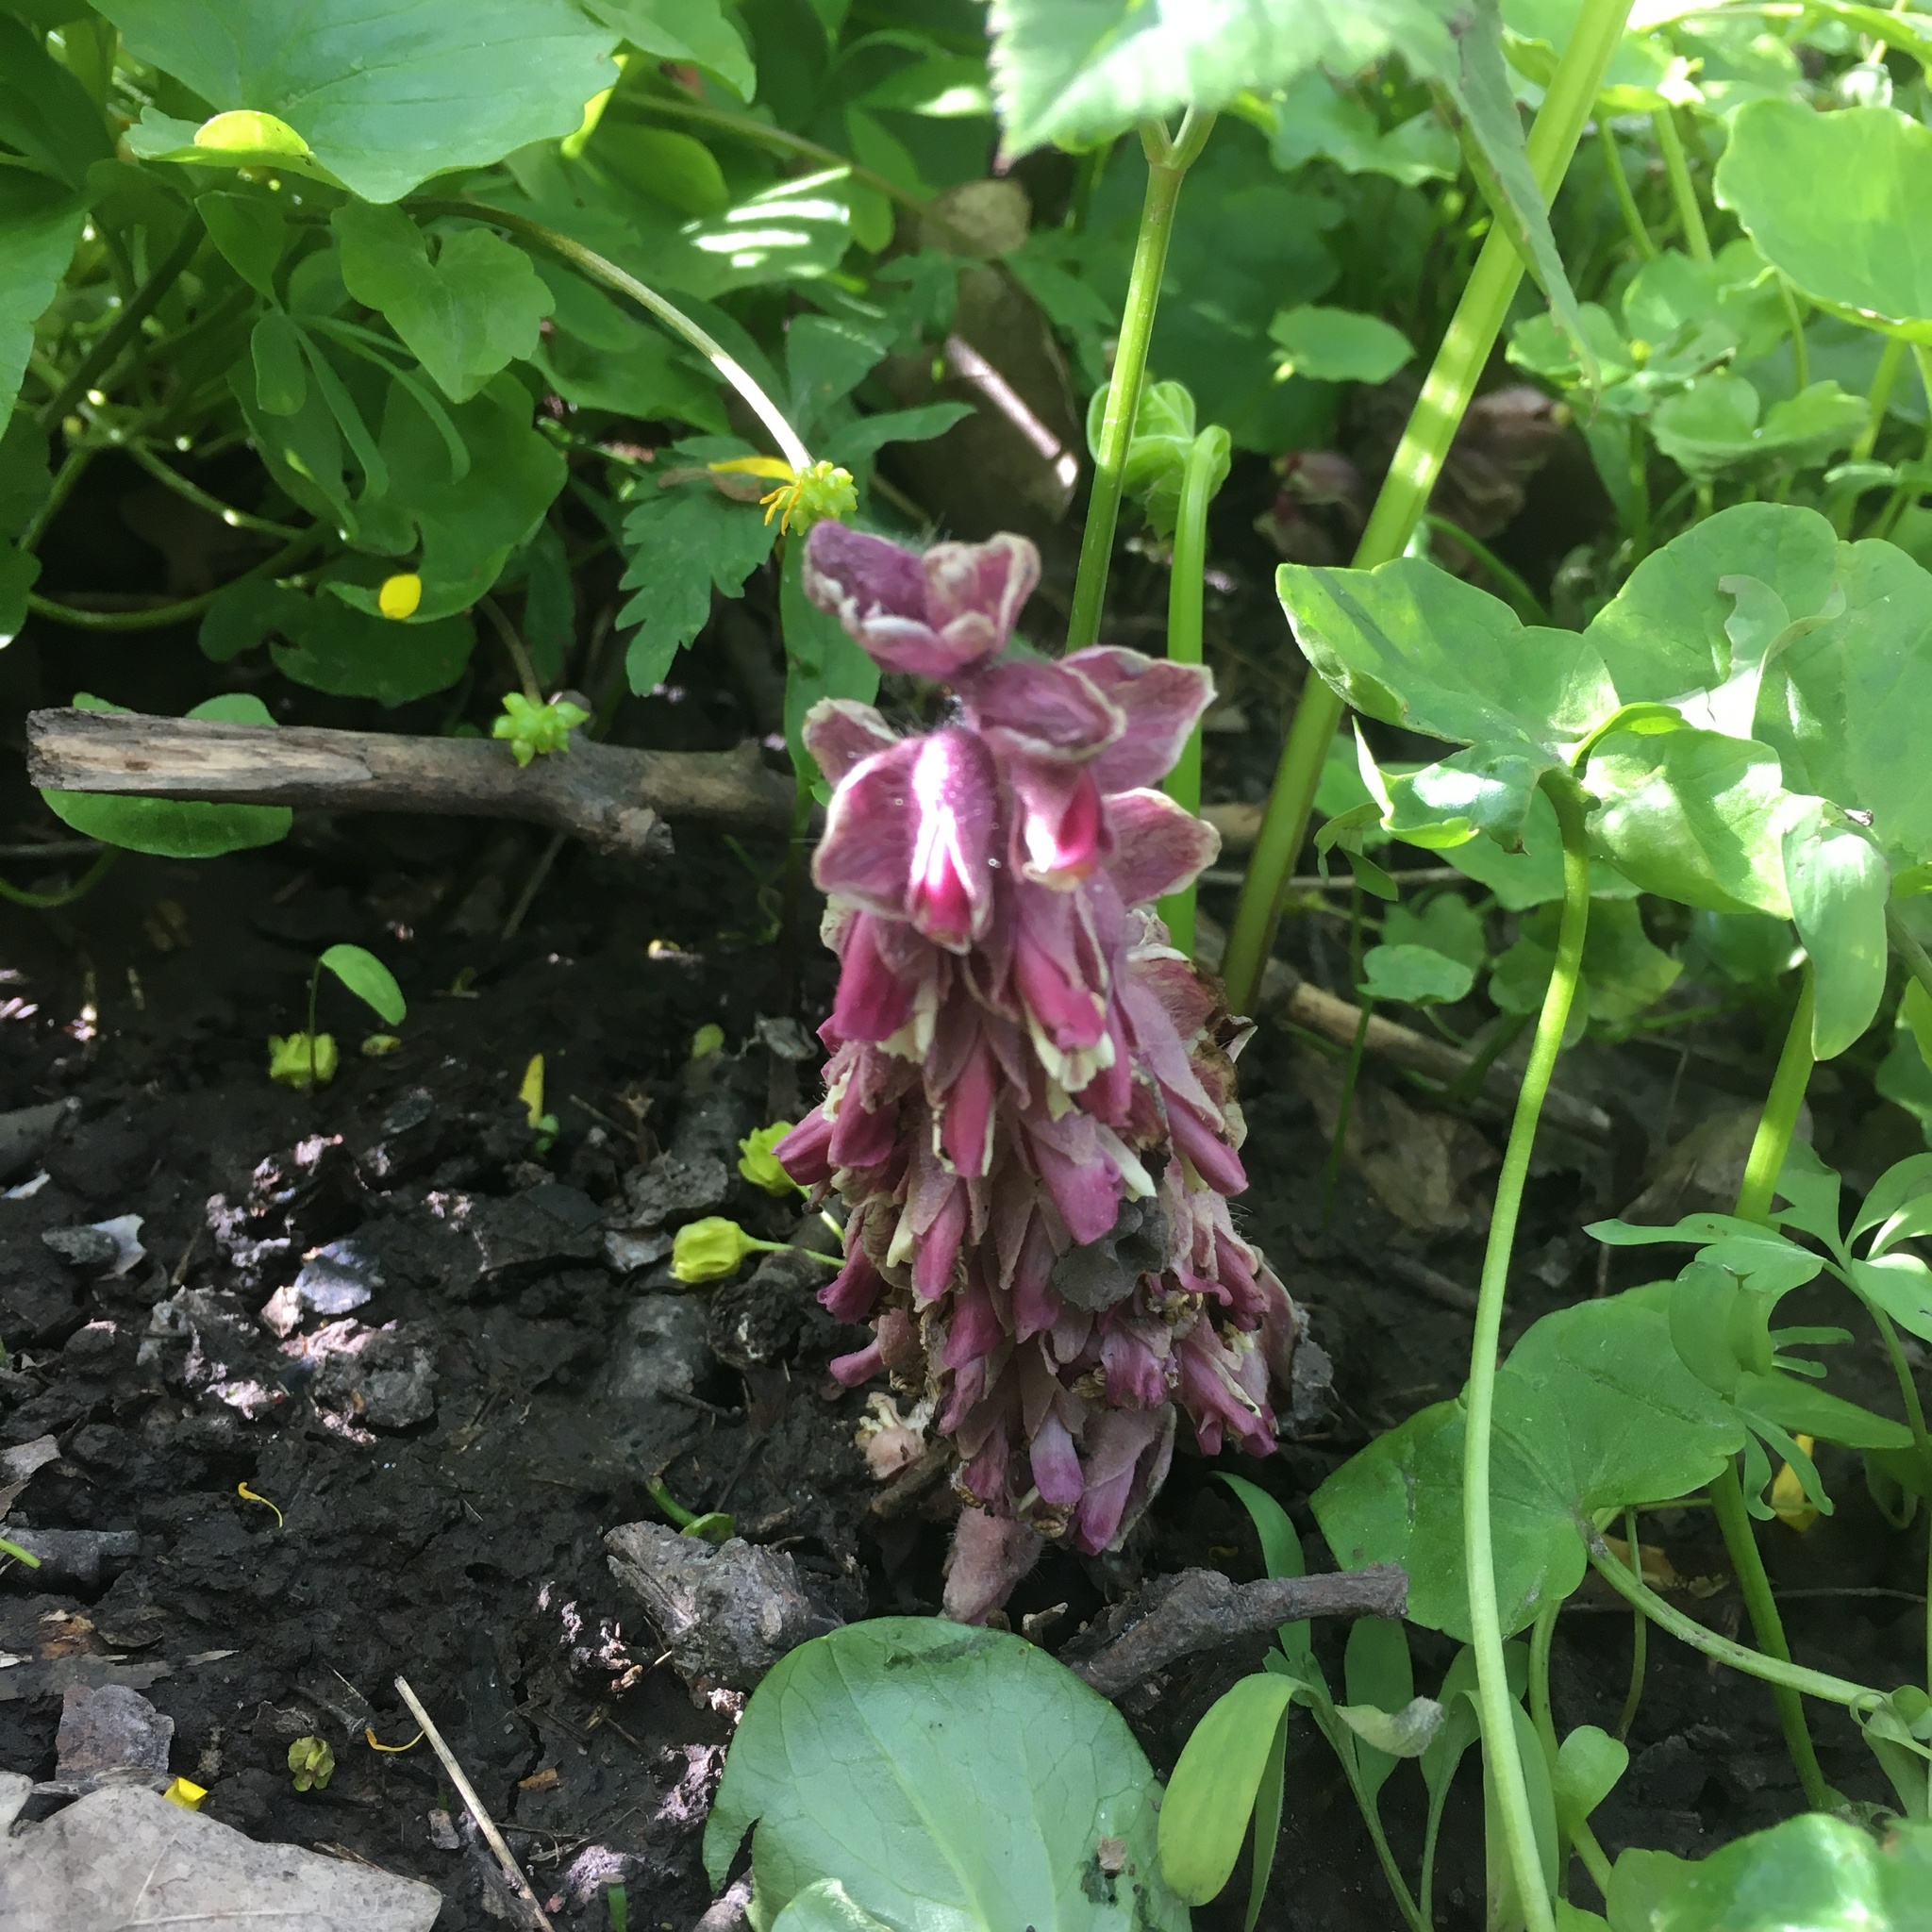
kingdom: Plantae
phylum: Tracheophyta
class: Magnoliopsida
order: Lamiales
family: Orobanchaceae
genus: Lathraea
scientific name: Lathraea squamaria
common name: Toothwort
